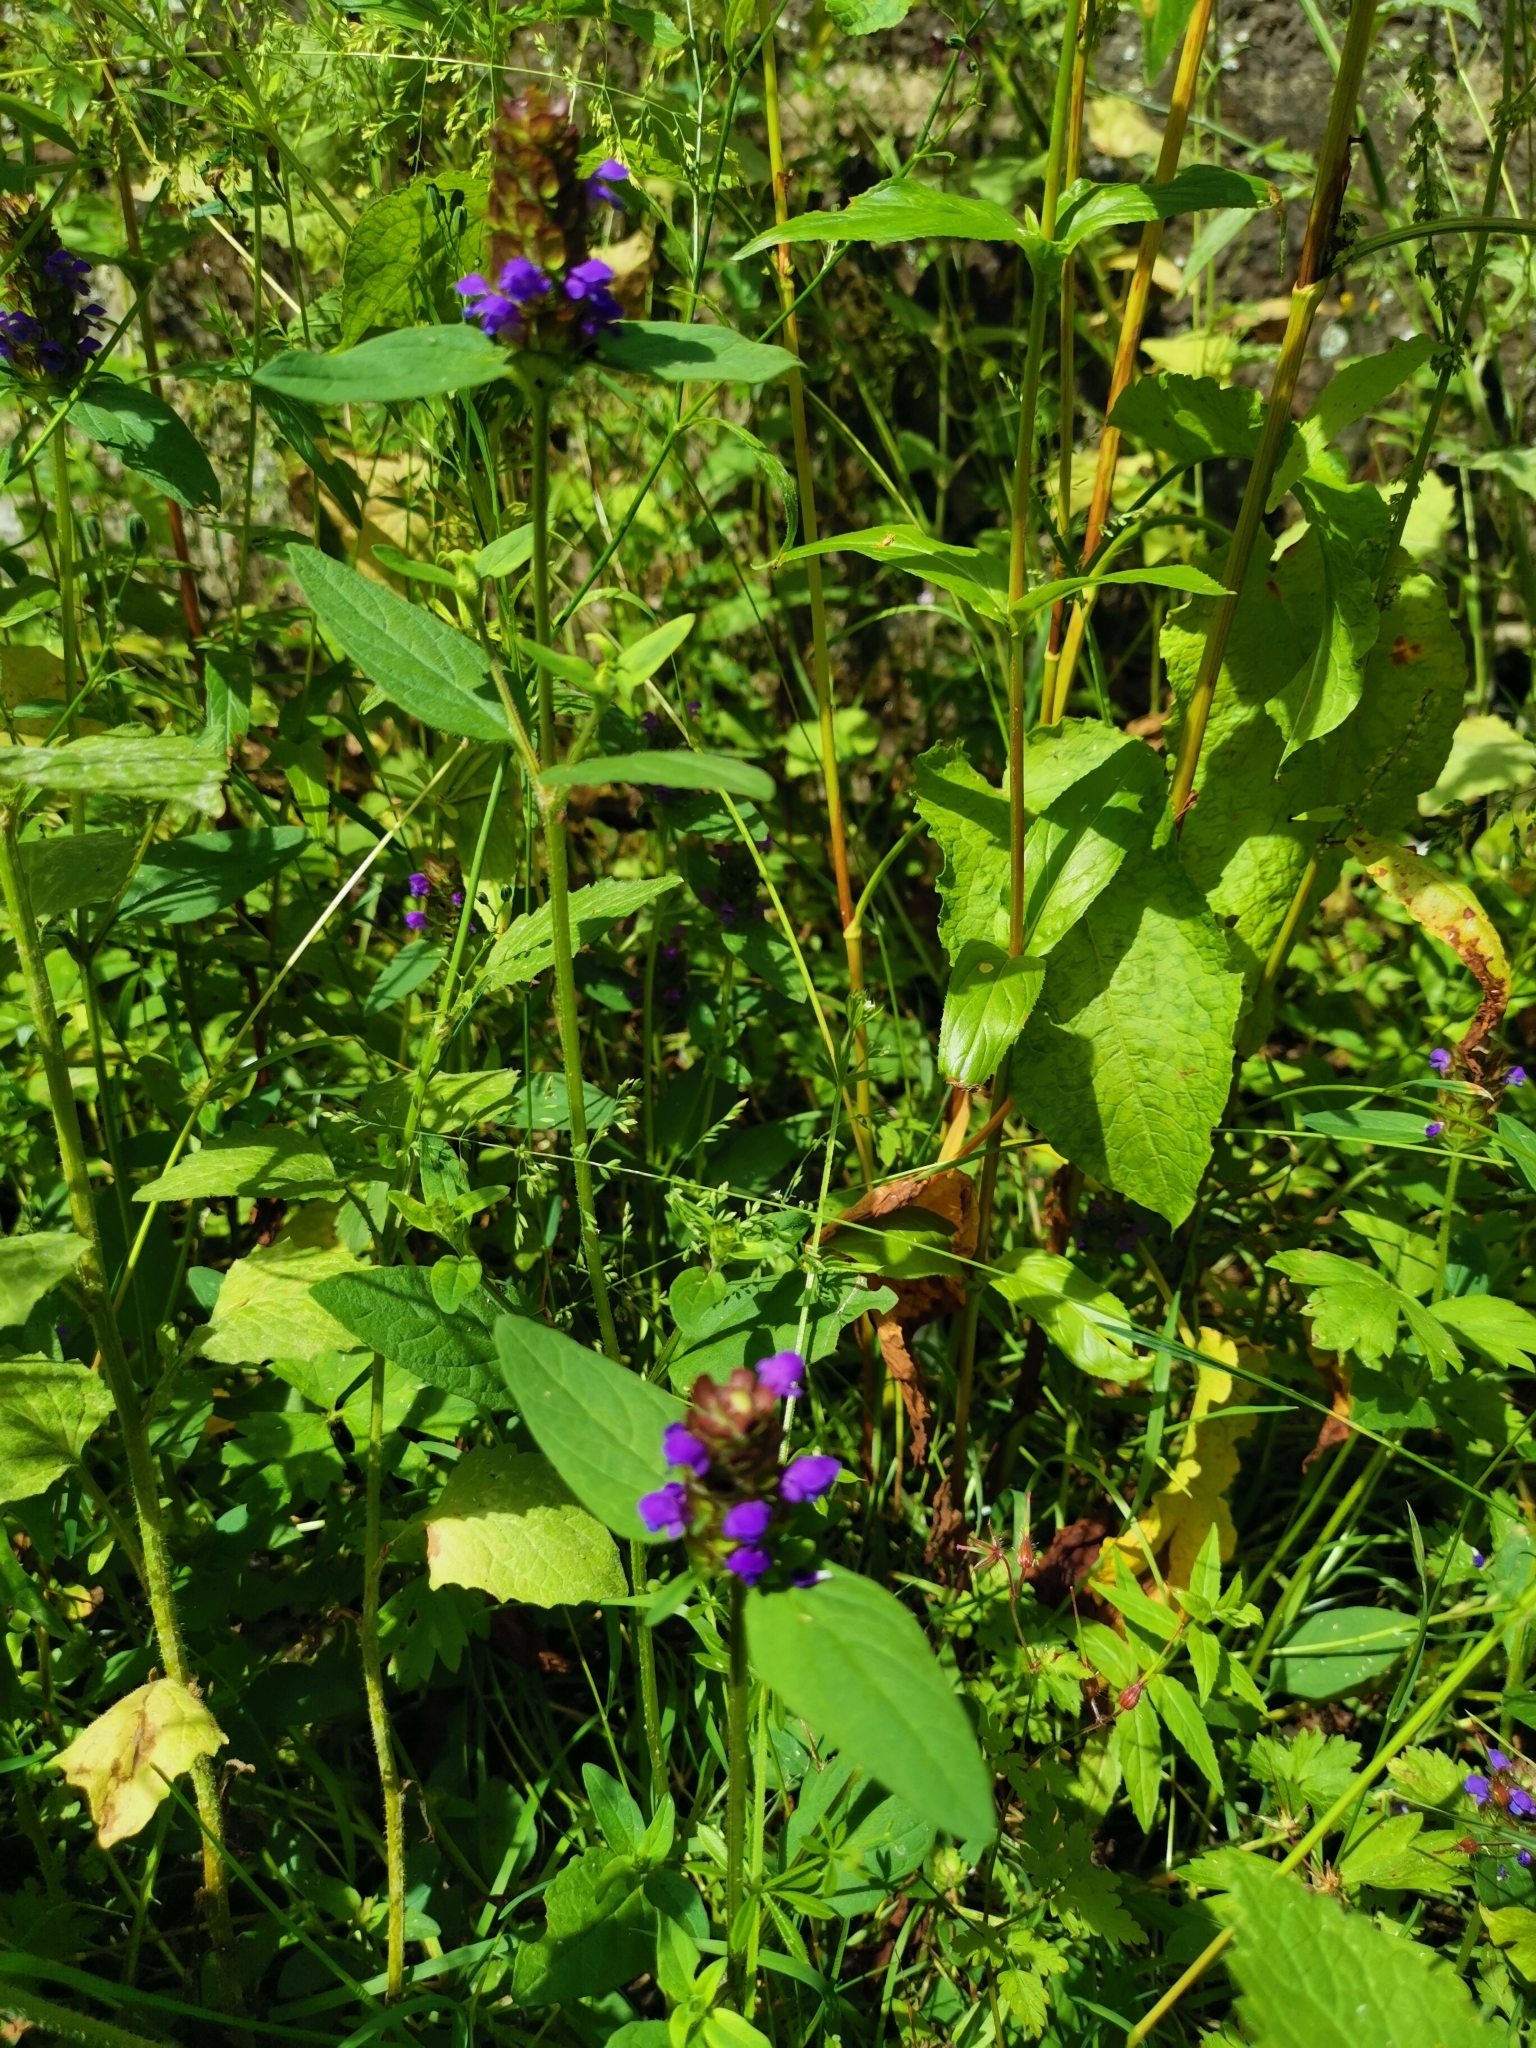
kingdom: Plantae
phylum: Tracheophyta
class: Magnoliopsida
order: Lamiales
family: Lamiaceae
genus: Prunella
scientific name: Prunella vulgaris
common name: Heal-all
